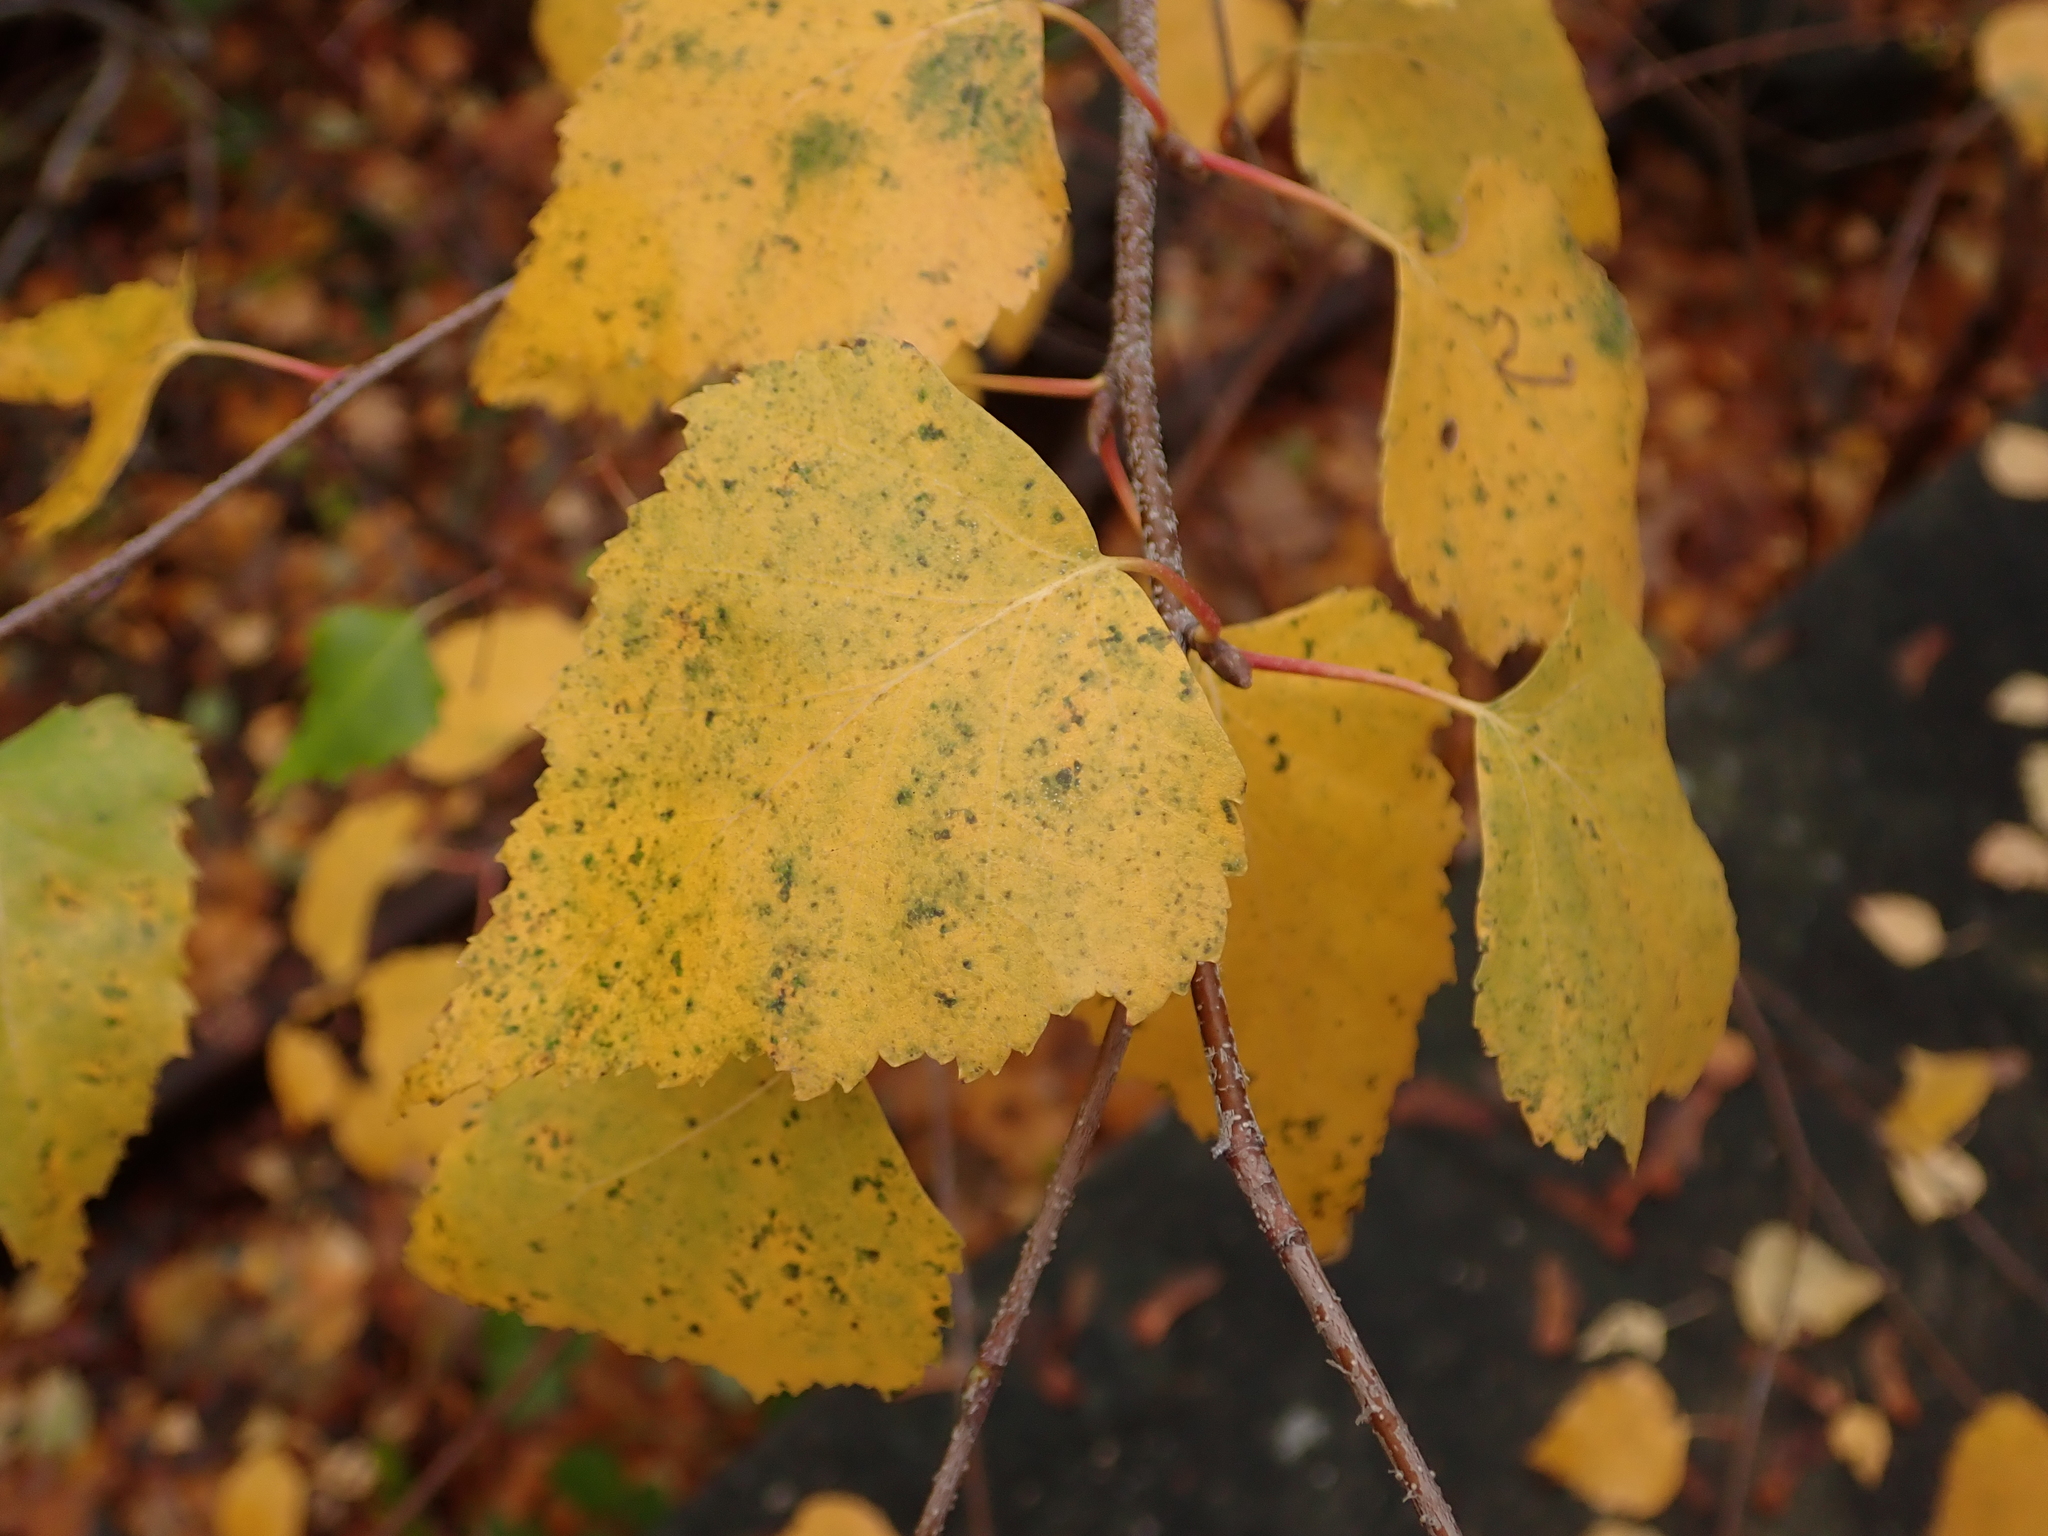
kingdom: Plantae
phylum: Tracheophyta
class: Magnoliopsida
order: Fagales
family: Betulaceae
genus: Betula
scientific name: Betula pendula
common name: Silver birch
